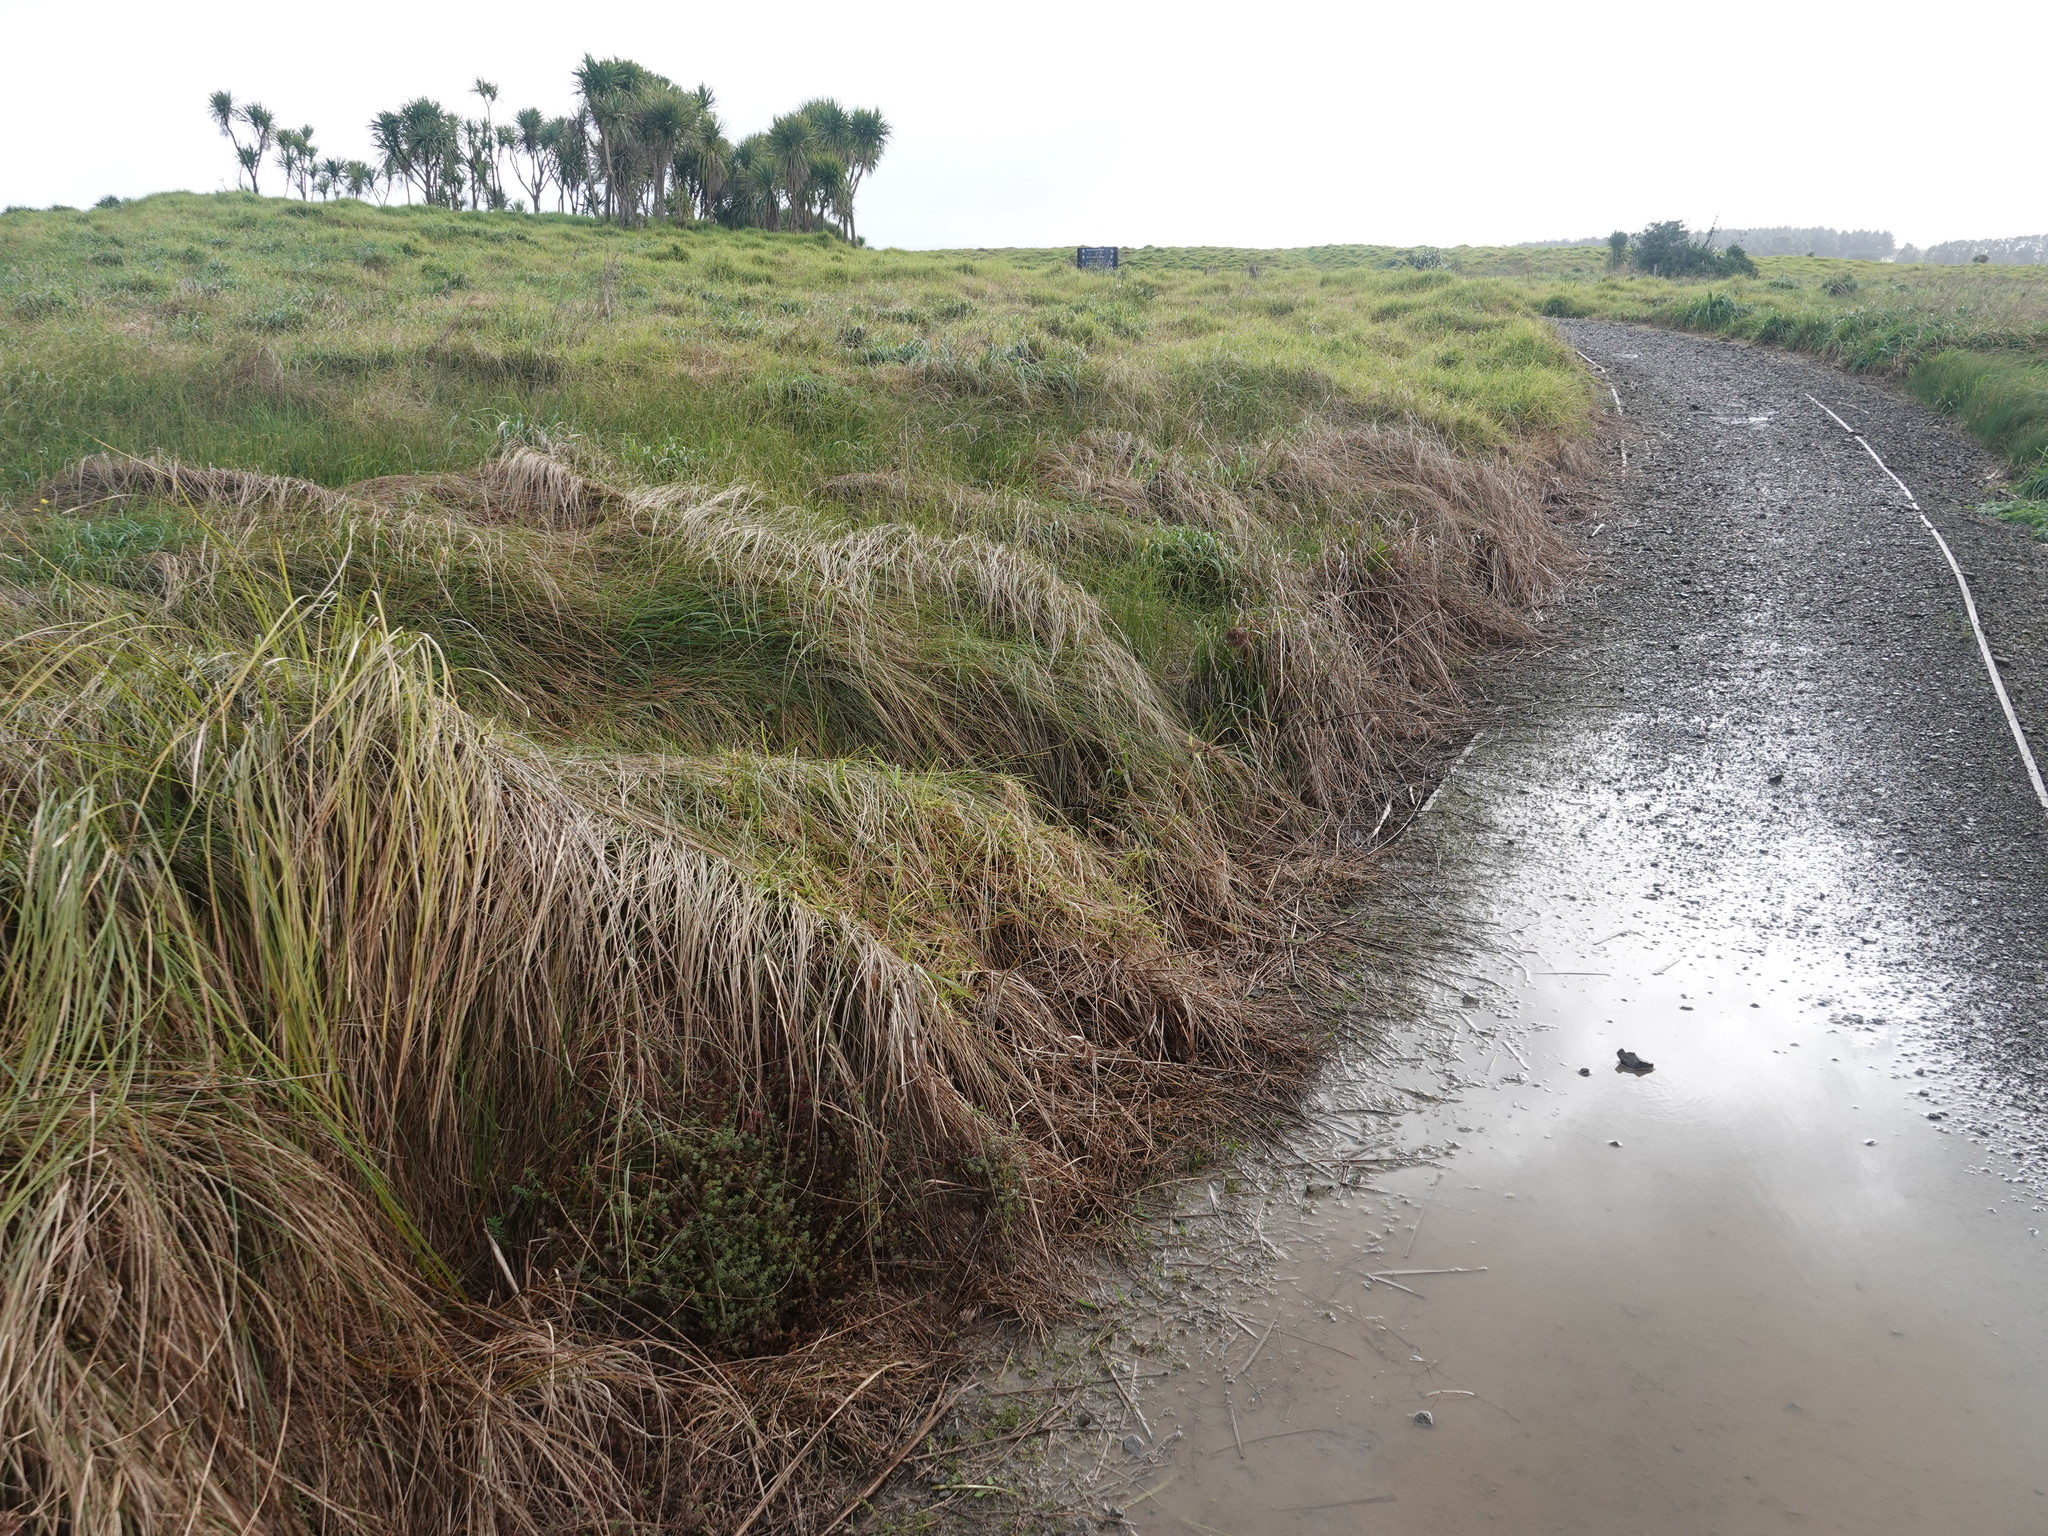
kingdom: Plantae
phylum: Tracheophyta
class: Magnoliopsida
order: Gentianales
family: Rubiaceae
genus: Galium
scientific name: Galium aparine
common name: Cleavers
